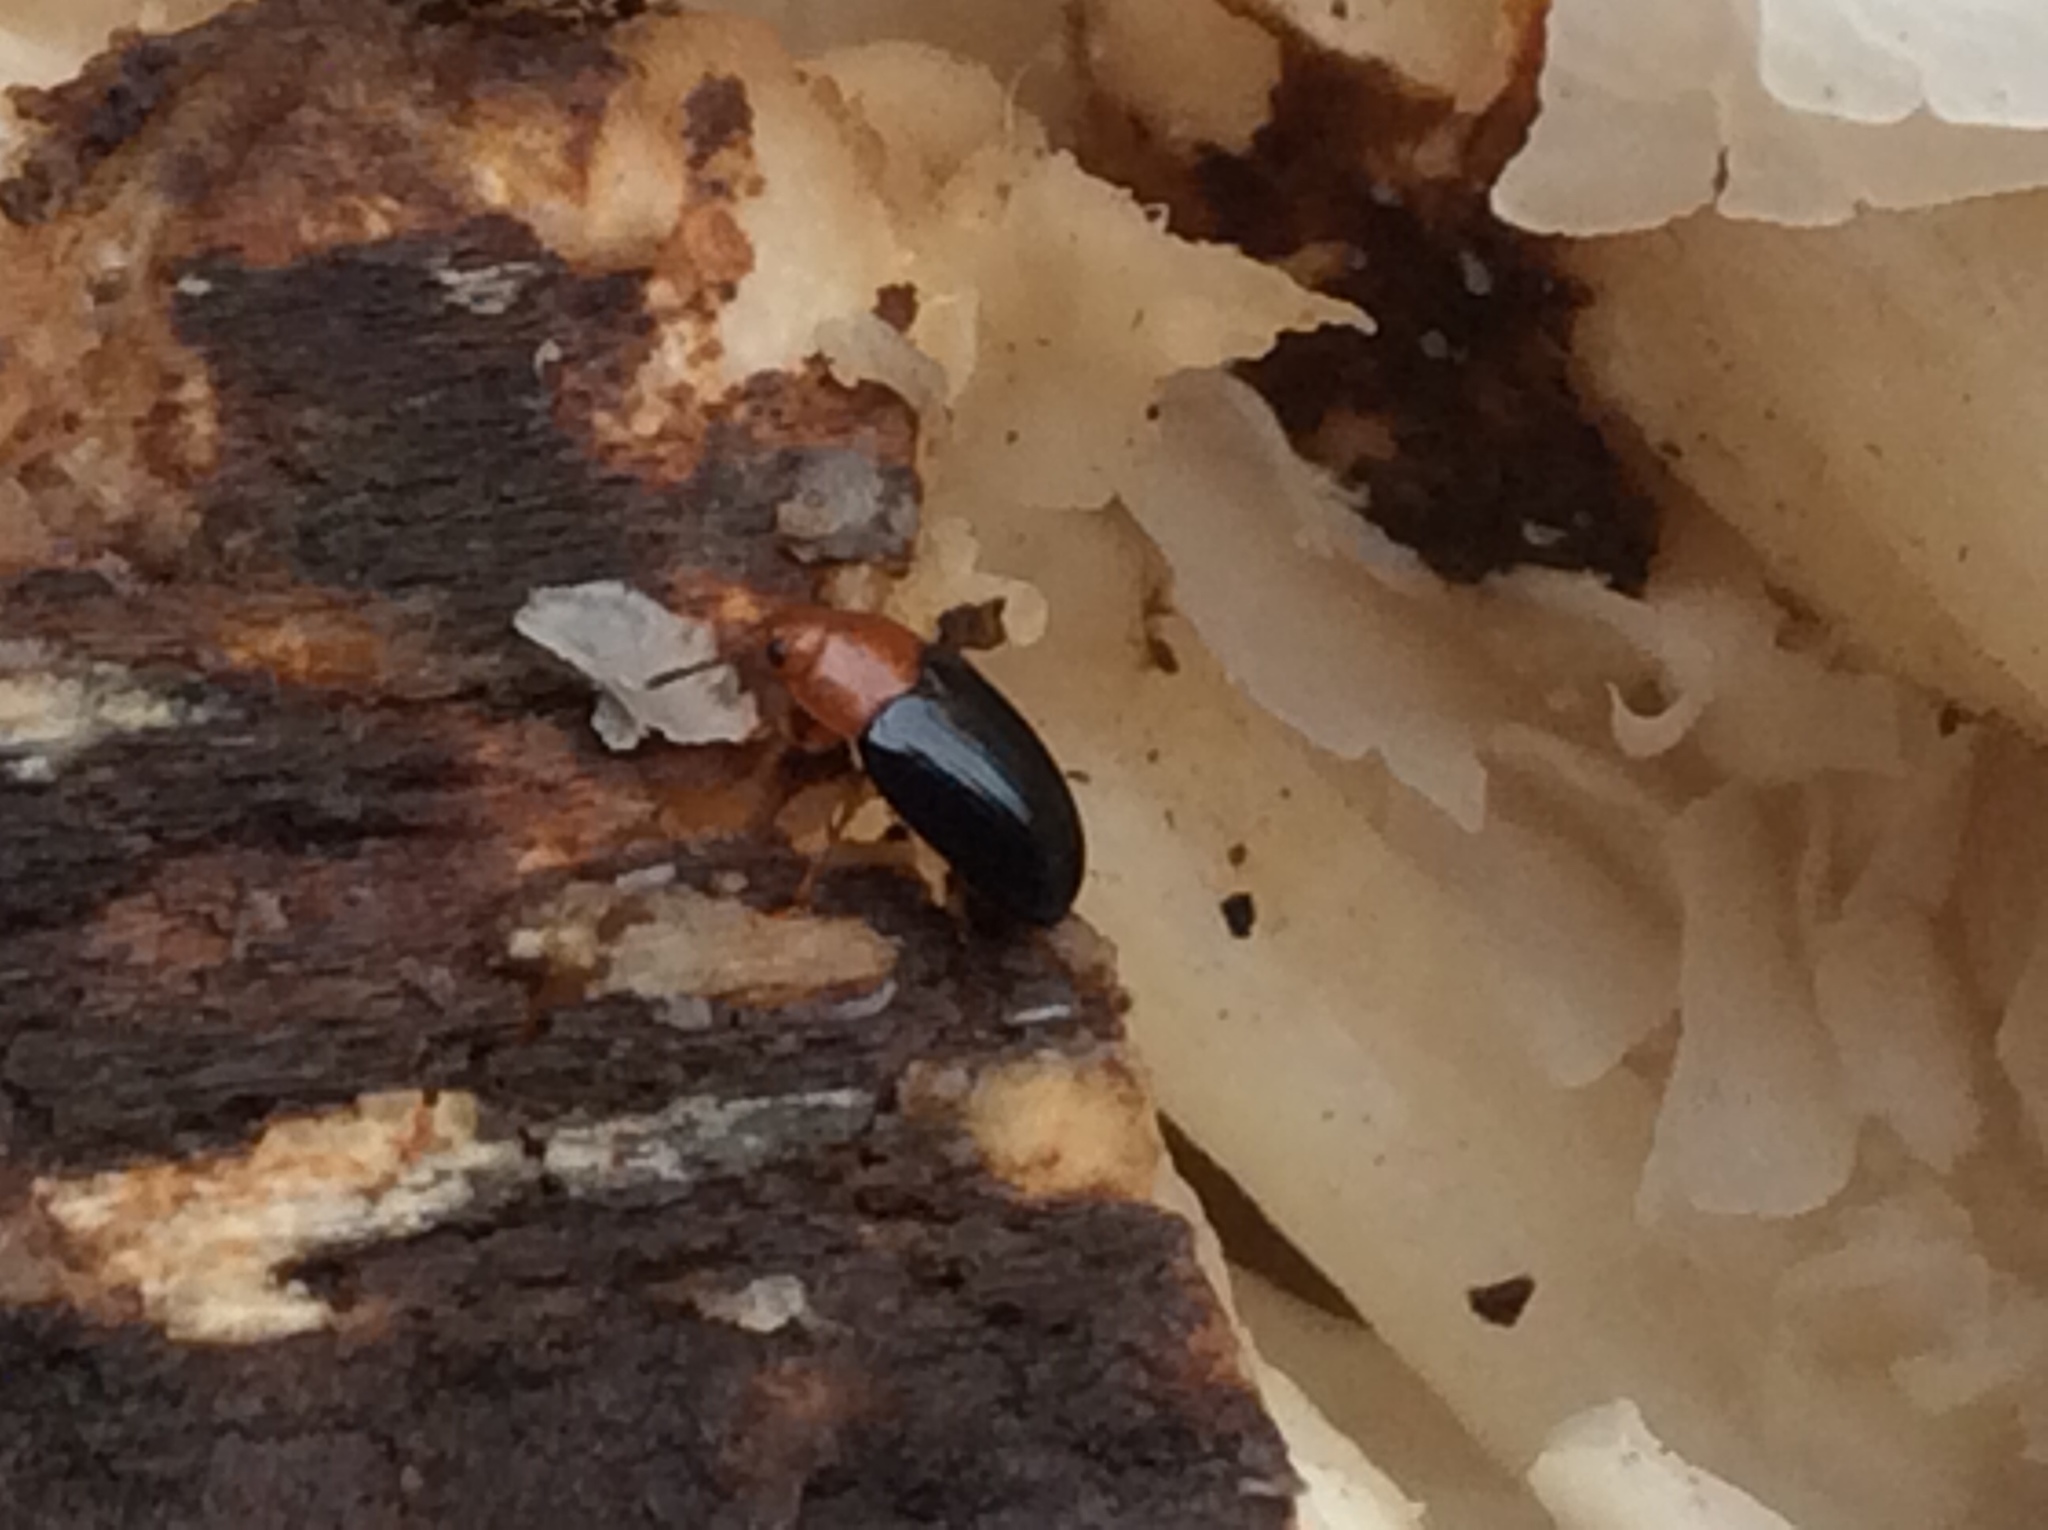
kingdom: Animalia
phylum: Arthropoda
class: Insecta
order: Coleoptera
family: Erotylidae
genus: Triplax
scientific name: Triplax thoracica
